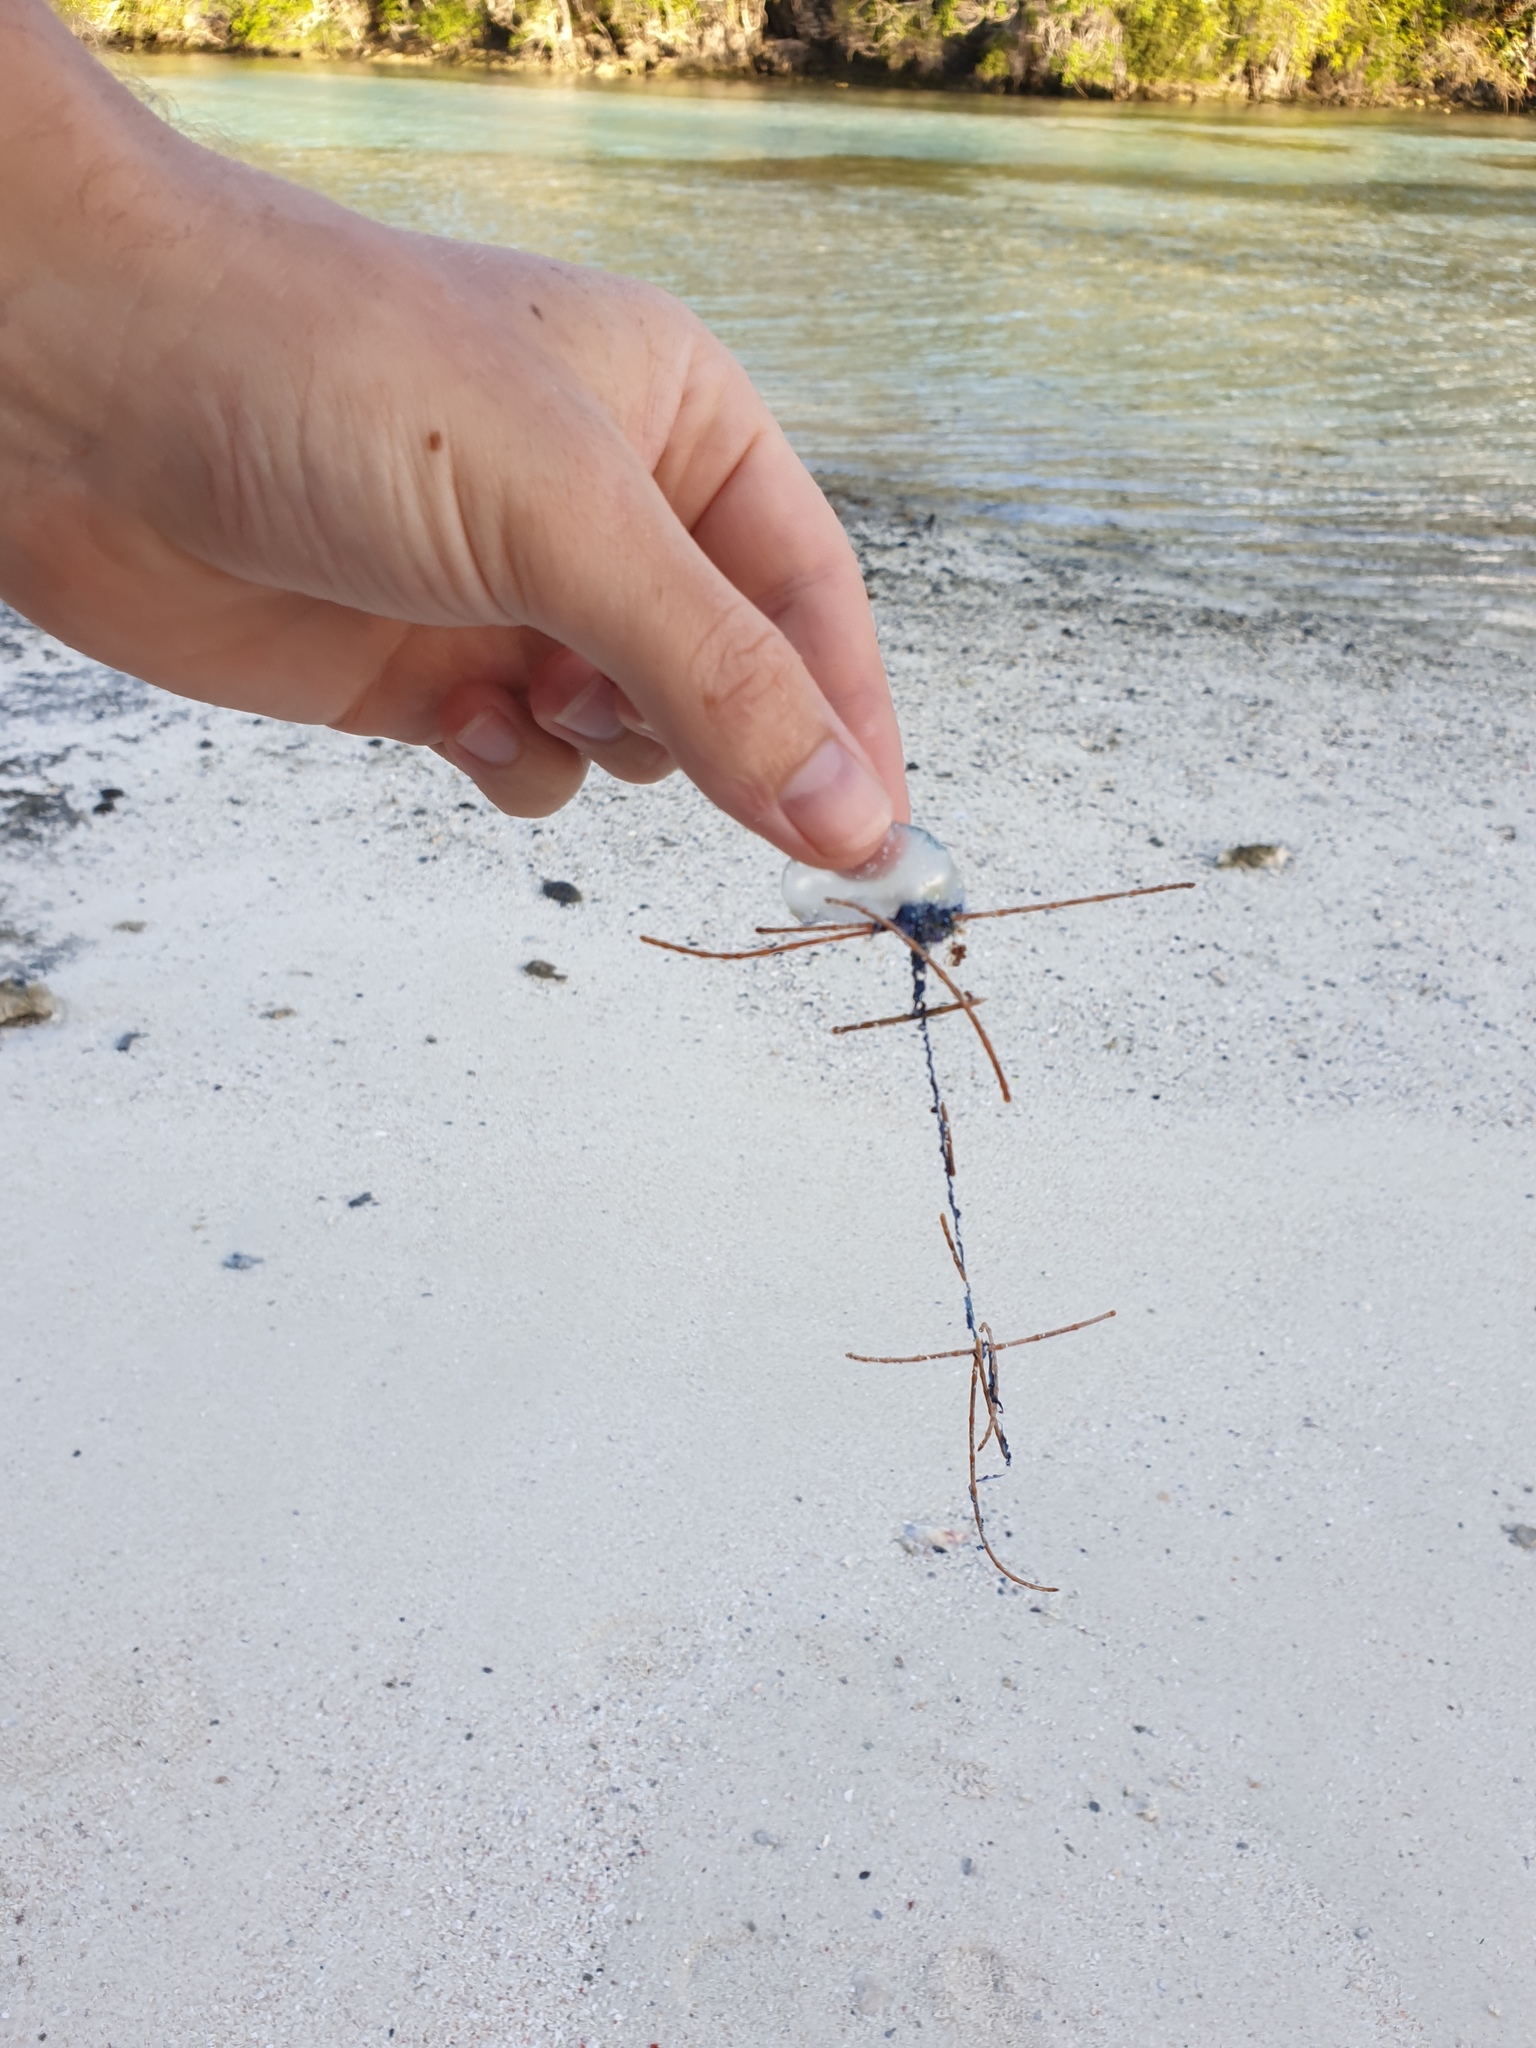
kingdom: Animalia
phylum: Cnidaria
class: Hydrozoa
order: Siphonophorae
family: Physaliidae
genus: Physalia
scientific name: Physalia physalis
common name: Portuguese man-of-war
